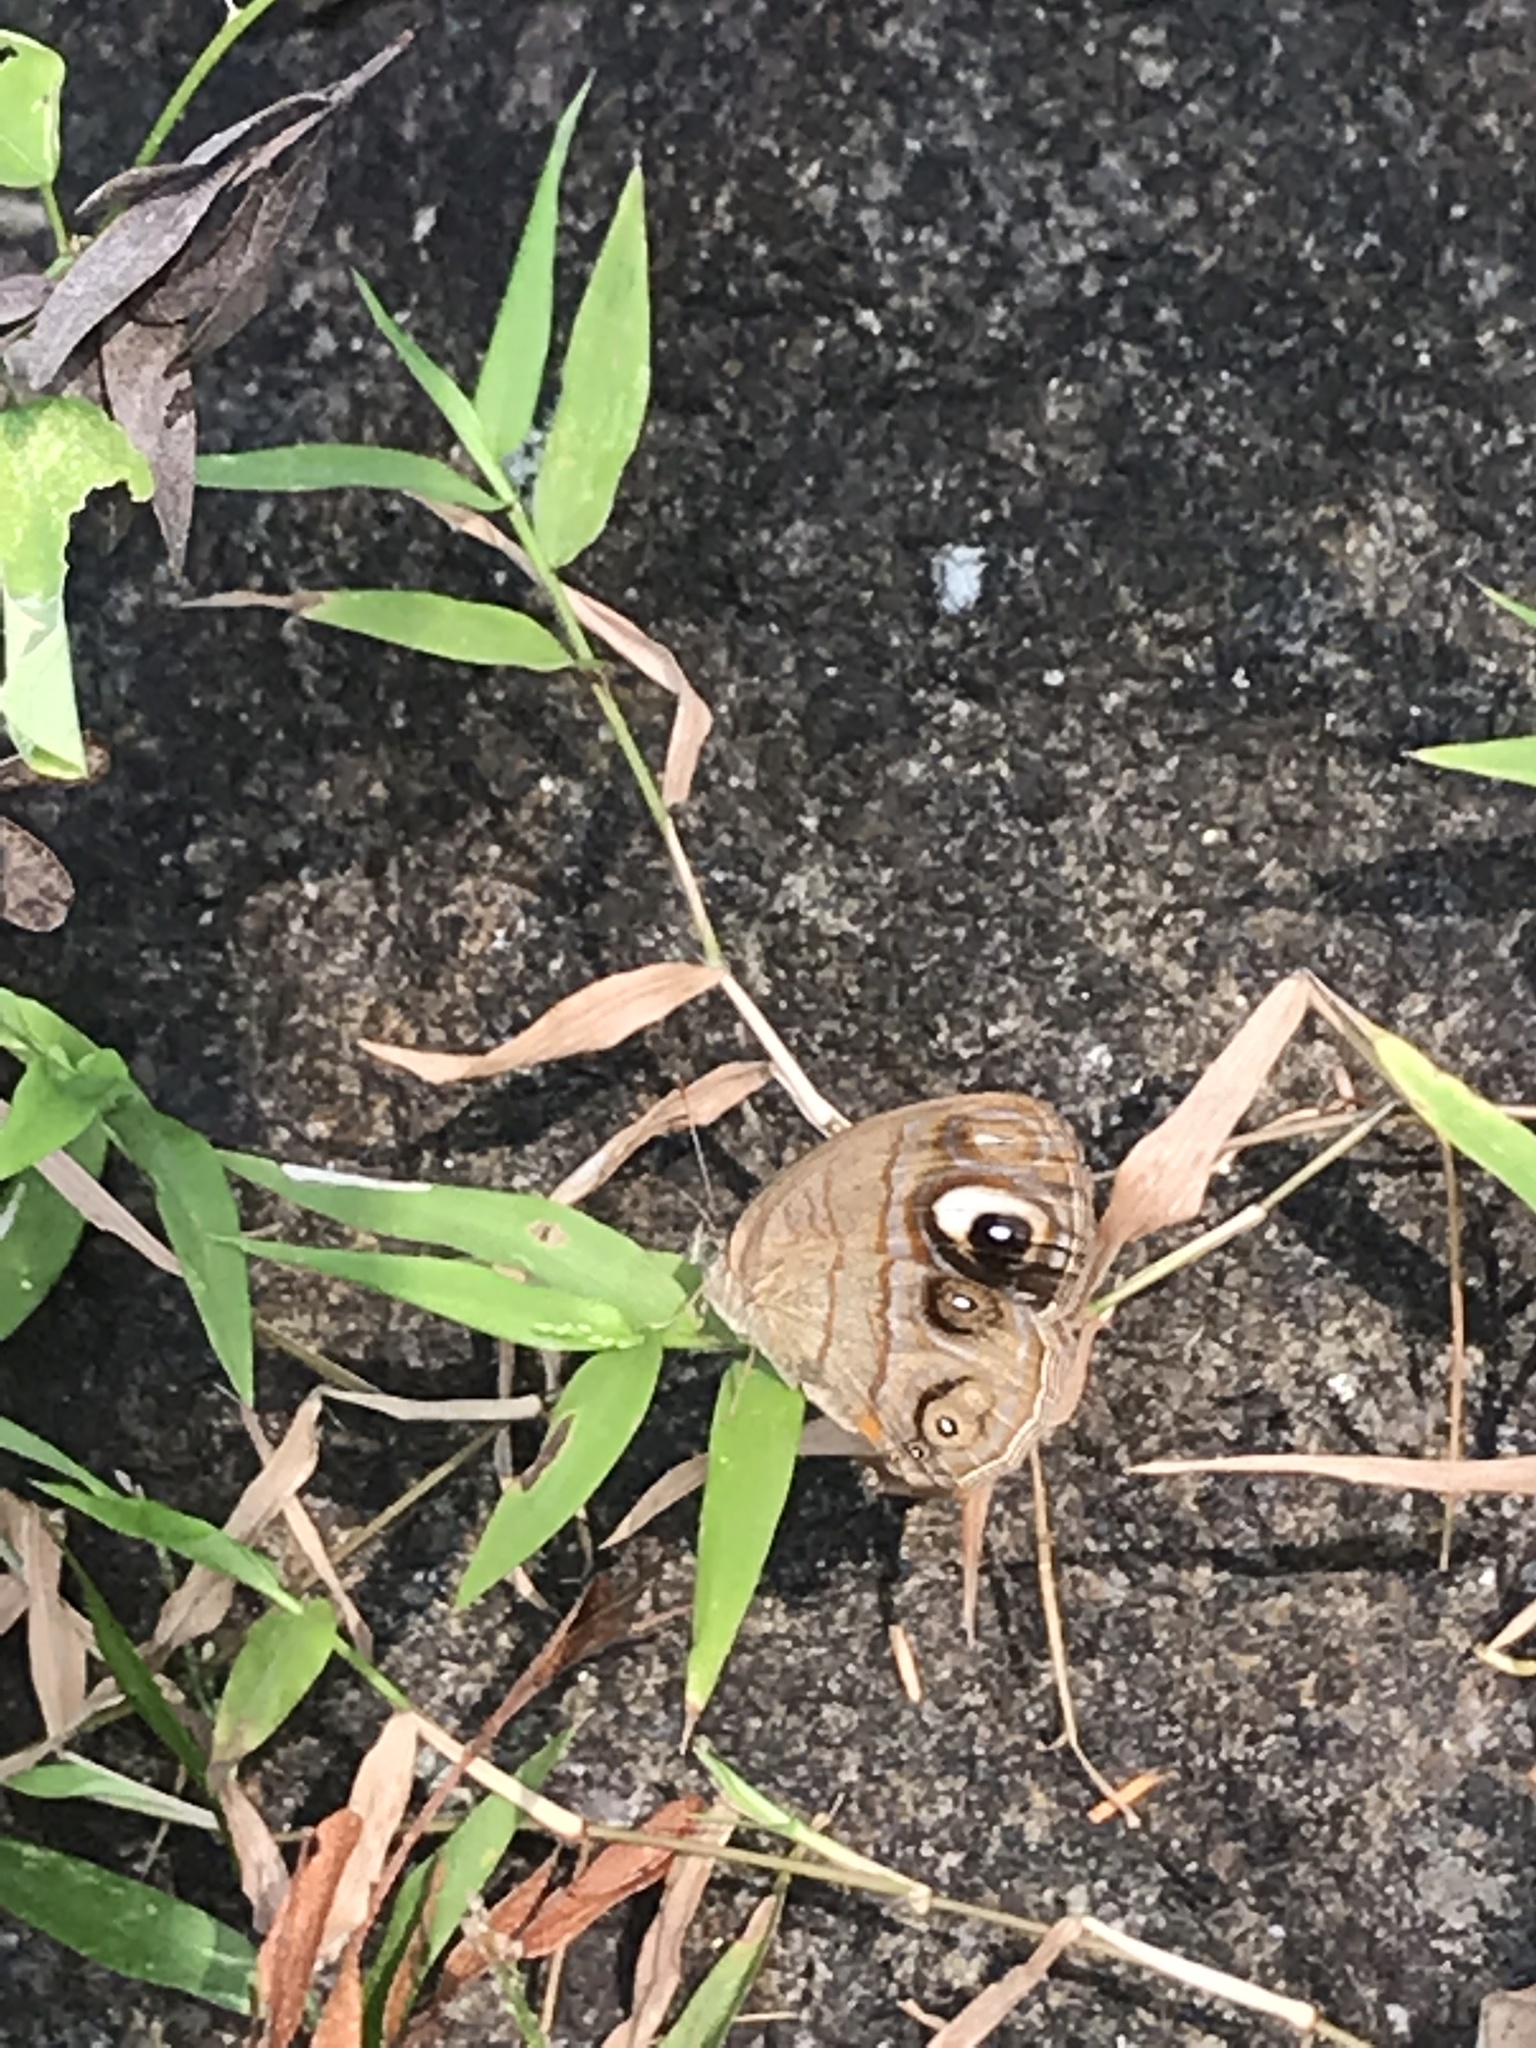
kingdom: Animalia
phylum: Arthropoda
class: Insecta
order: Lepidoptera
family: Nymphalidae
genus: Mycalesis
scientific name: Mycalesis patnia
